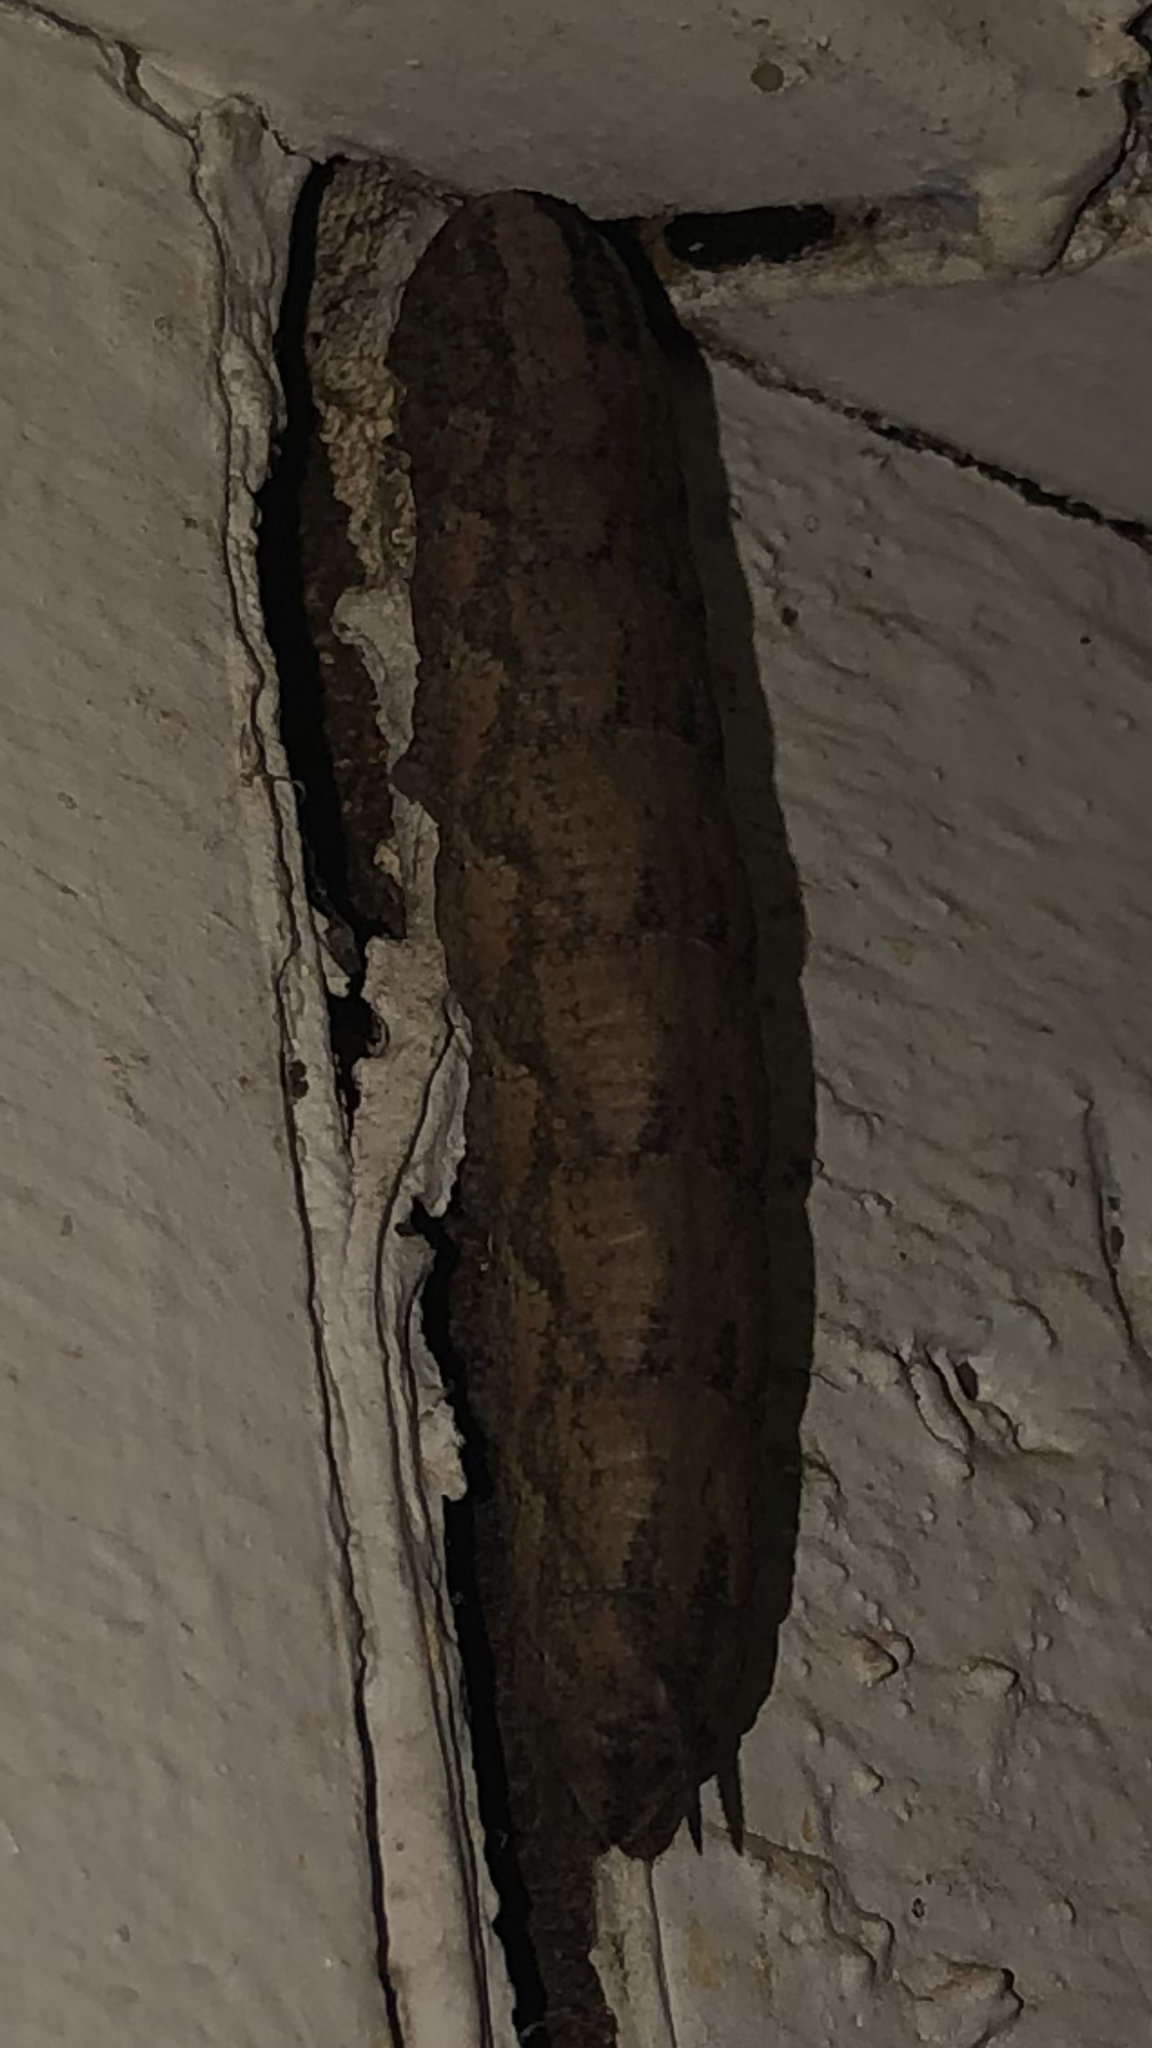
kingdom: Animalia
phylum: Arthropoda
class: Insecta
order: Lepidoptera
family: Sphingidae
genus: Ceratomia
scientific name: Ceratomia hageni
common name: Hagen's sphinx
